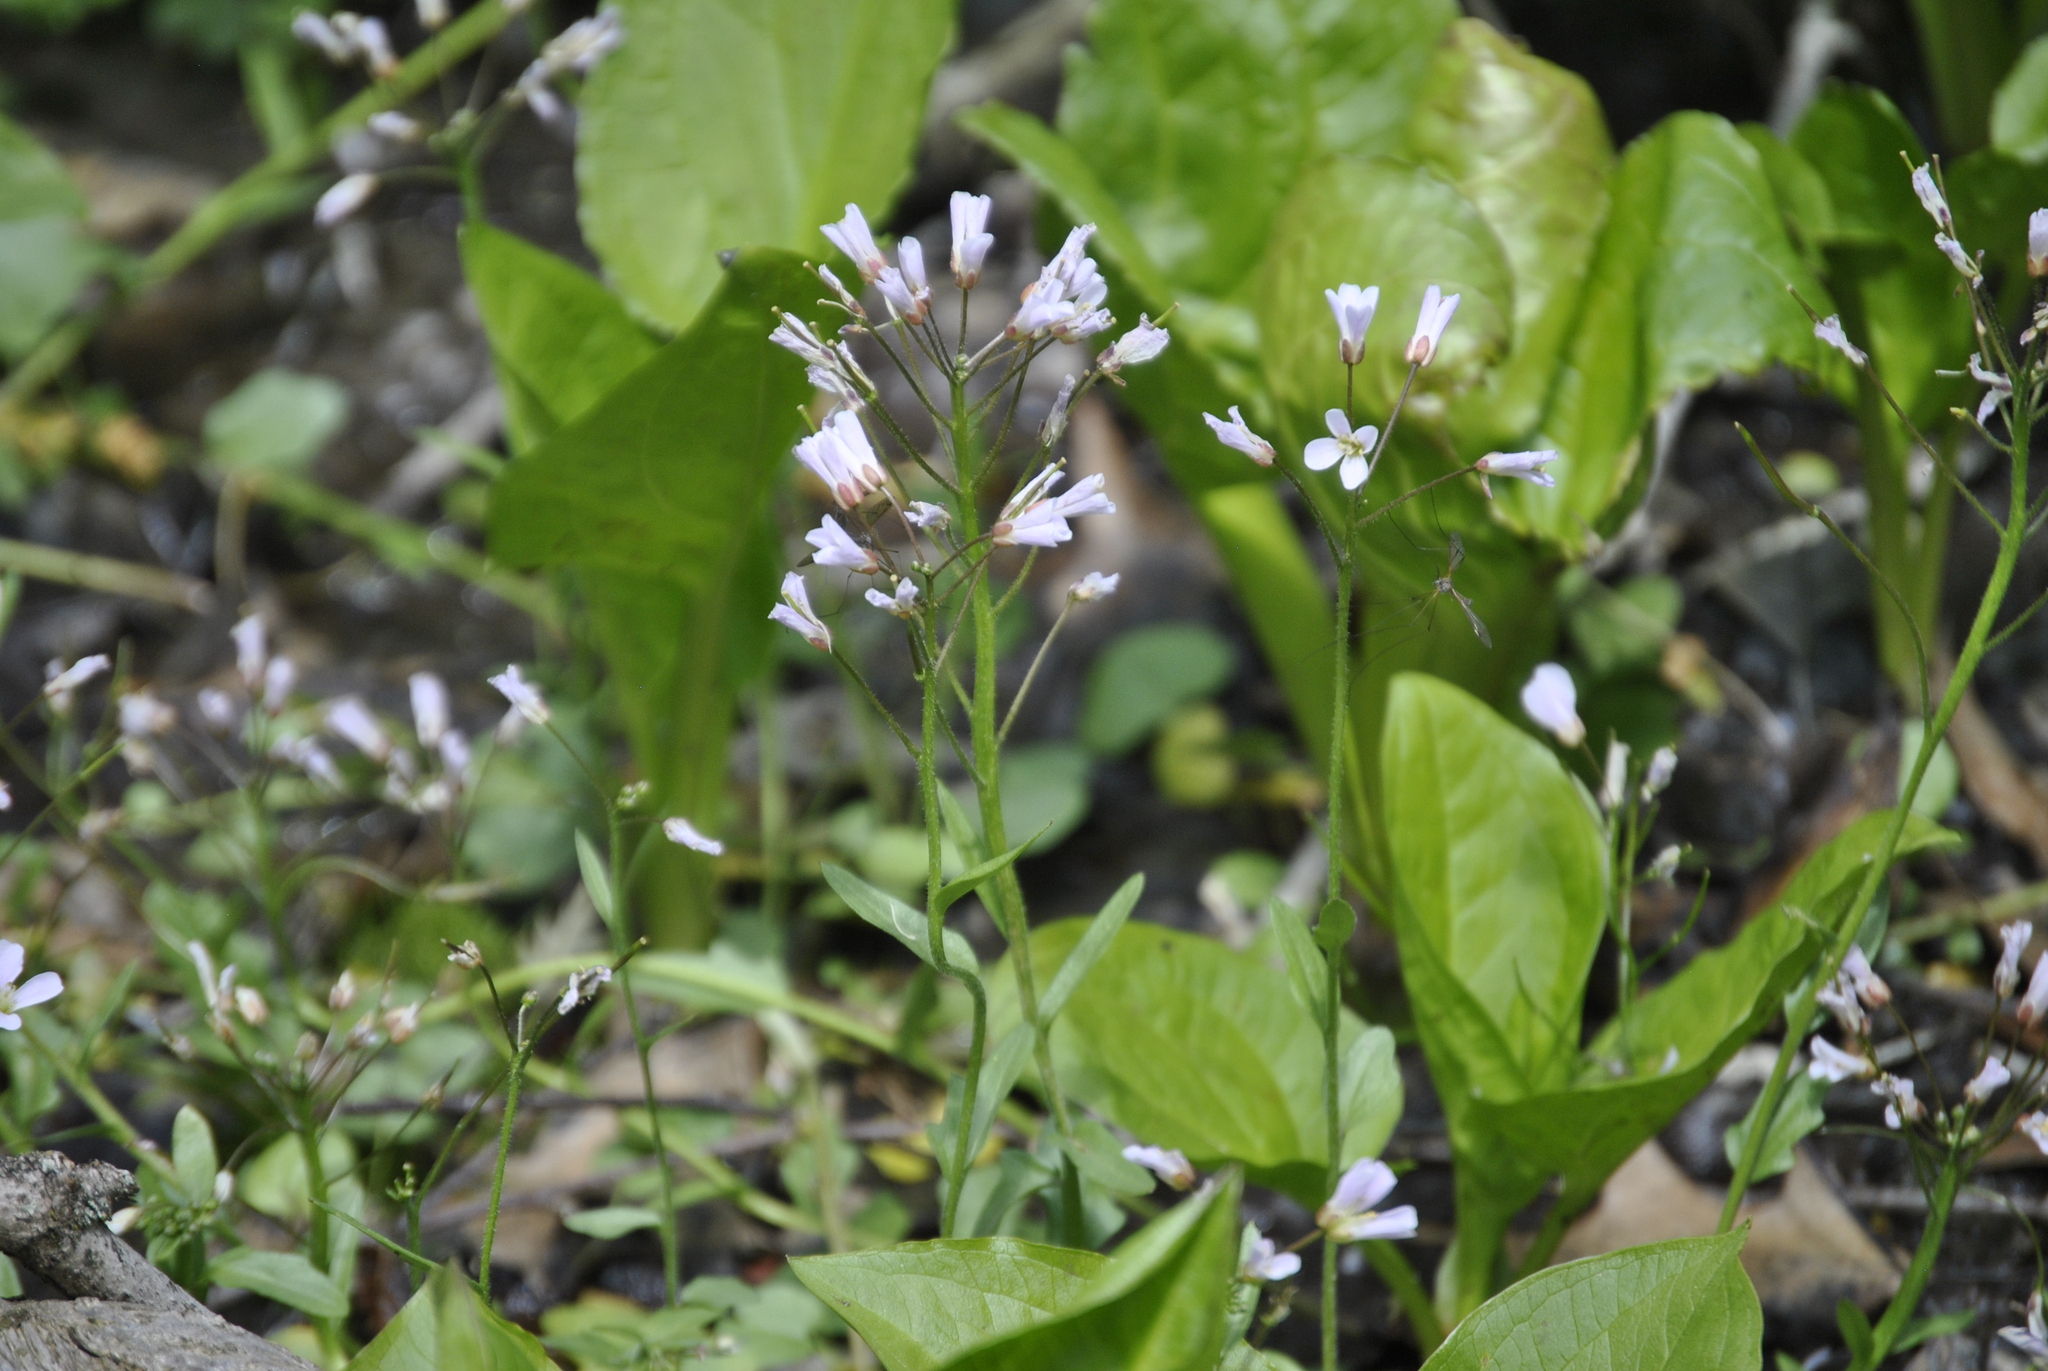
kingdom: Plantae
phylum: Tracheophyta
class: Magnoliopsida
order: Brassicales
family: Brassicaceae
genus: Cardamine
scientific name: Cardamine douglassii
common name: Purple cress
